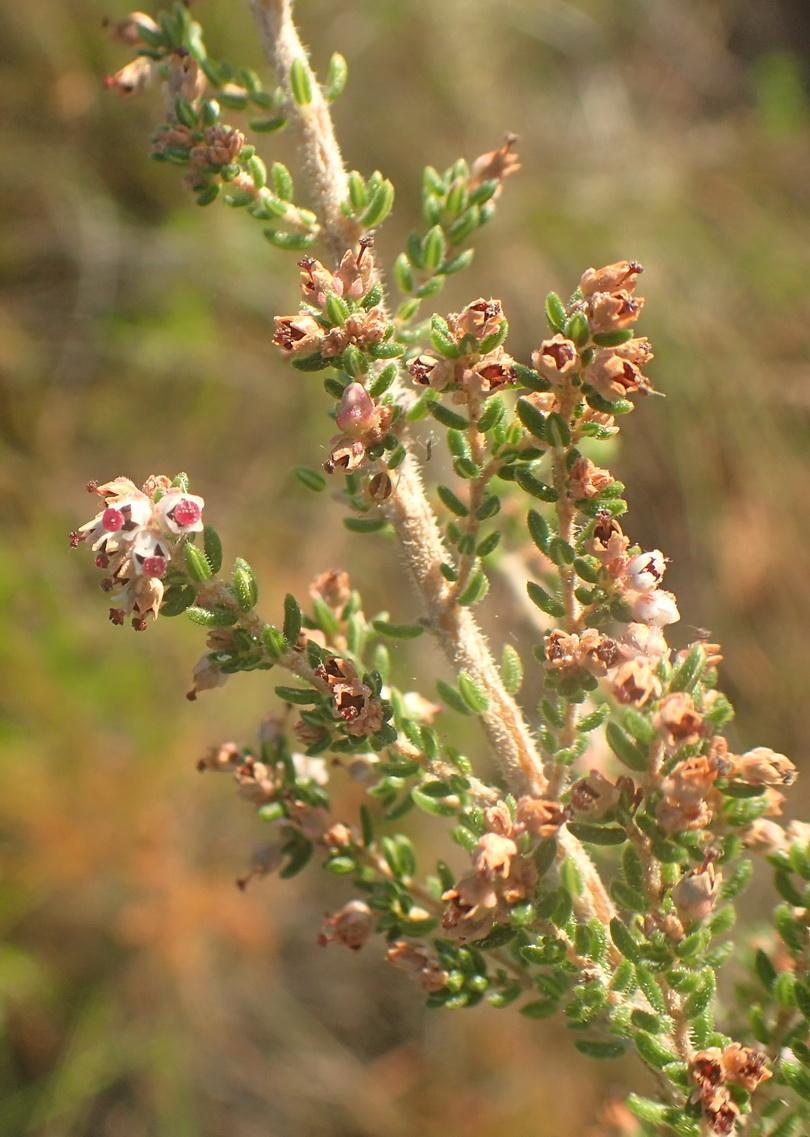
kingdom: Plantae
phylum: Tracheophyta
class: Magnoliopsida
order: Ericales
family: Ericaceae
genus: Erica
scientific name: Erica hispidula
